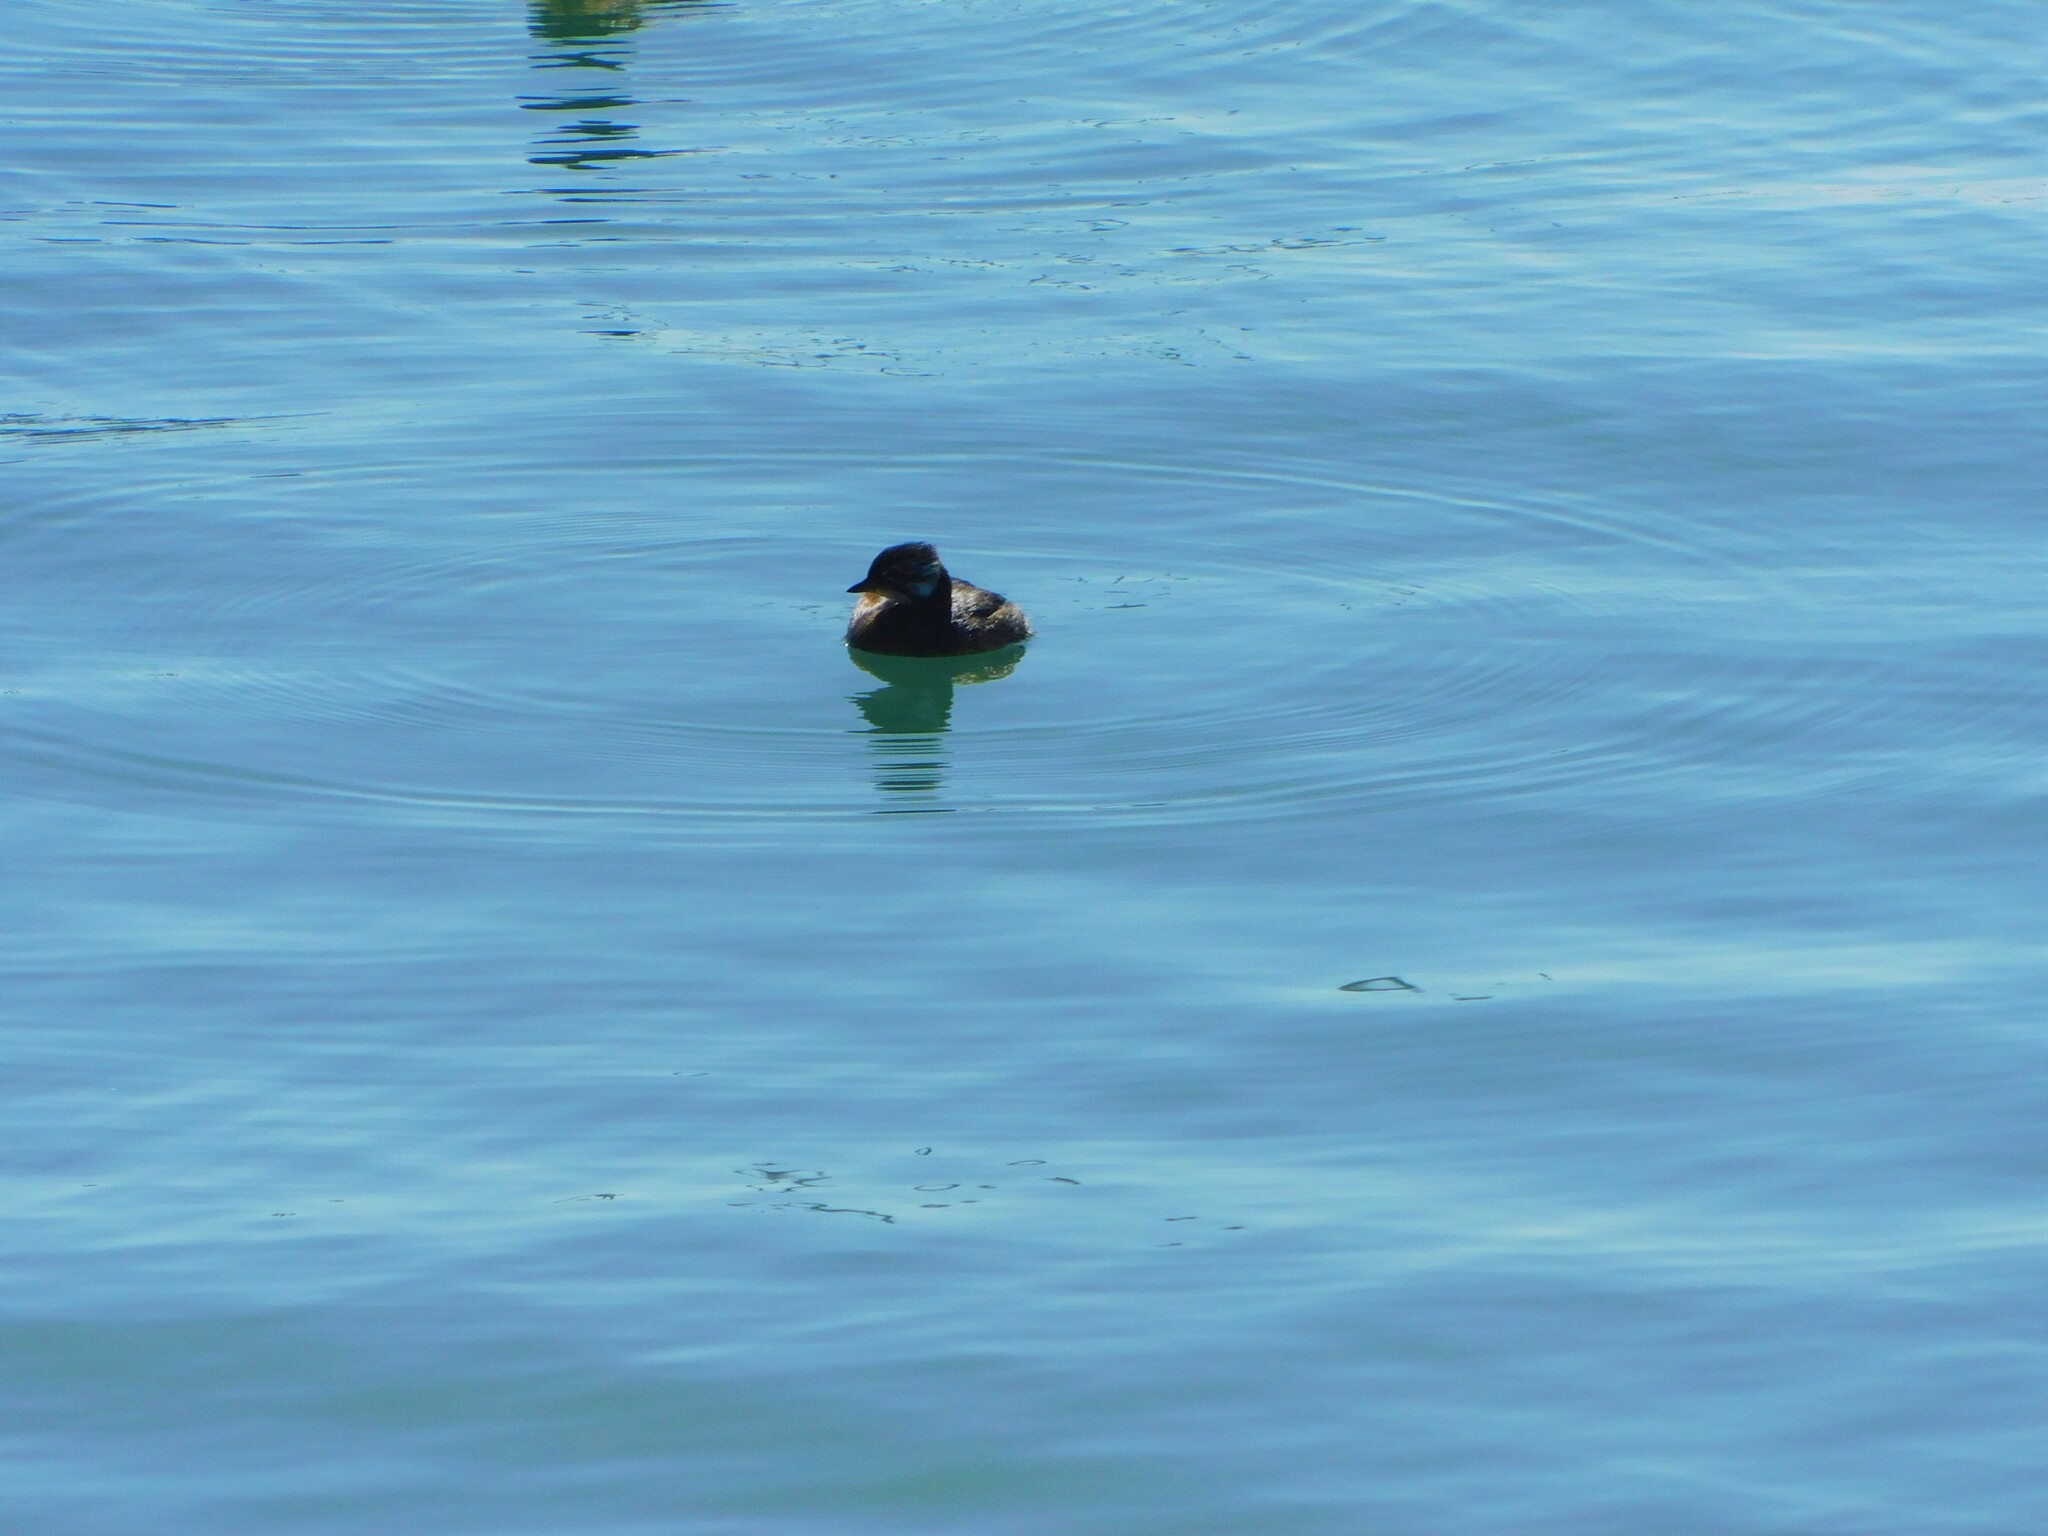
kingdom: Animalia
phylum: Chordata
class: Aves
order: Podicipediformes
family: Podicipedidae
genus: Rollandia
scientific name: Rollandia rolland
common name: White-tufted grebe
